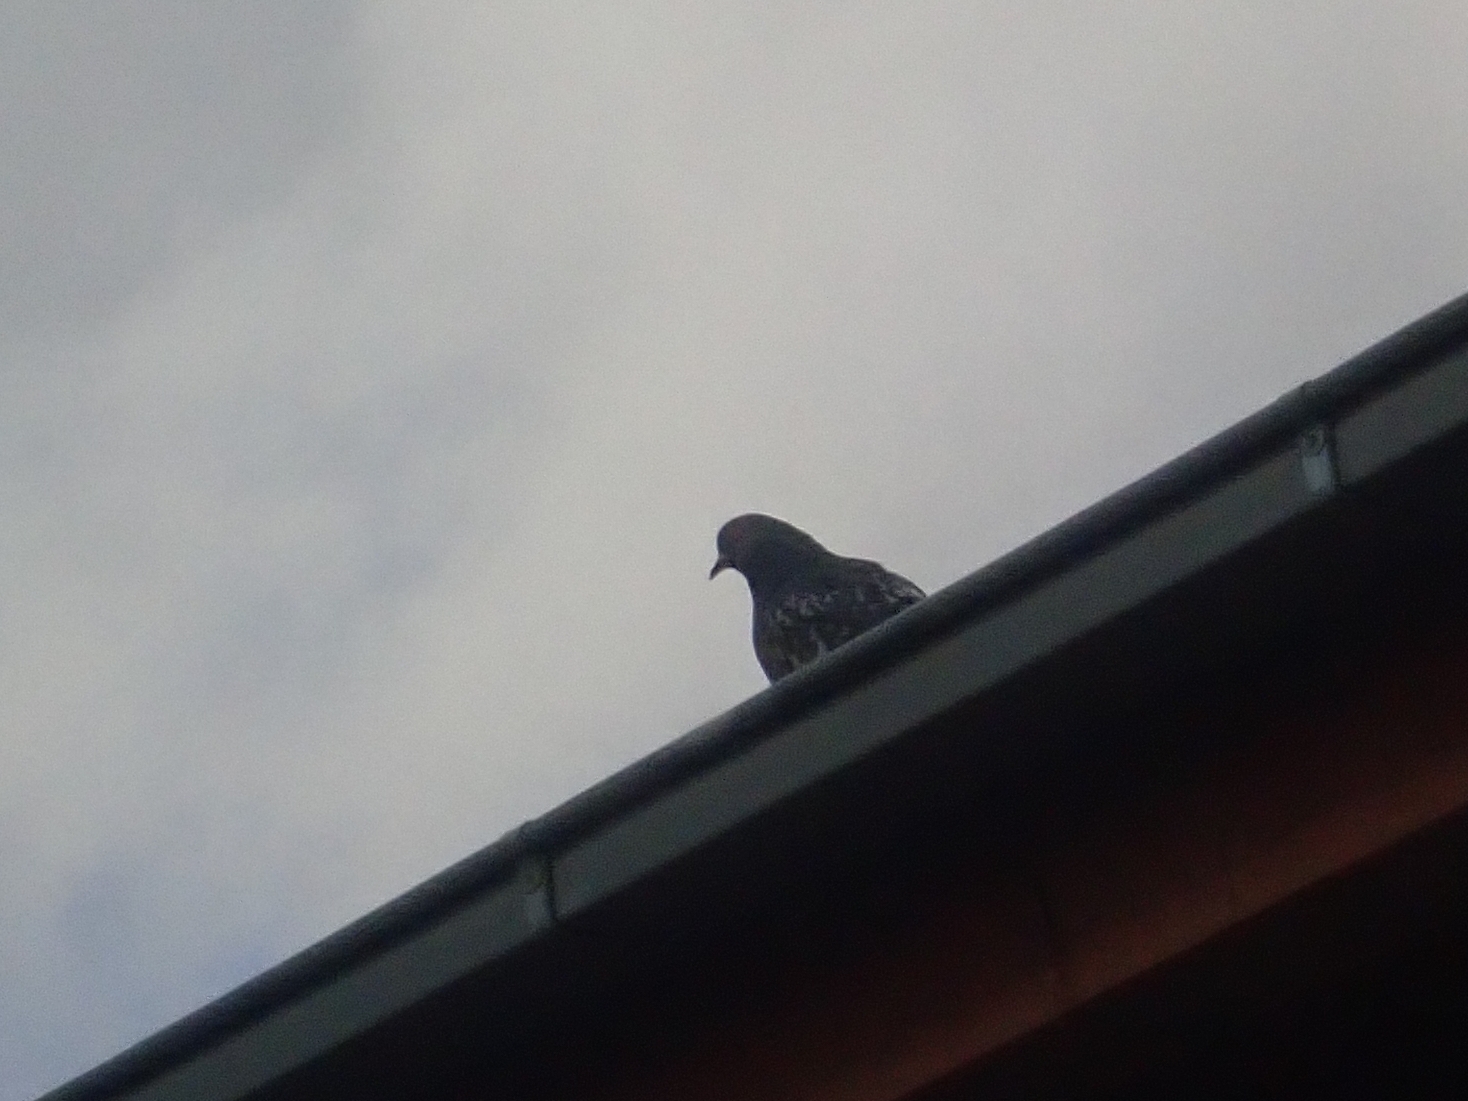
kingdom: Animalia
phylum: Chordata
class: Aves
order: Columbiformes
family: Columbidae
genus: Columba
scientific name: Columba livia
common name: Rock pigeon
